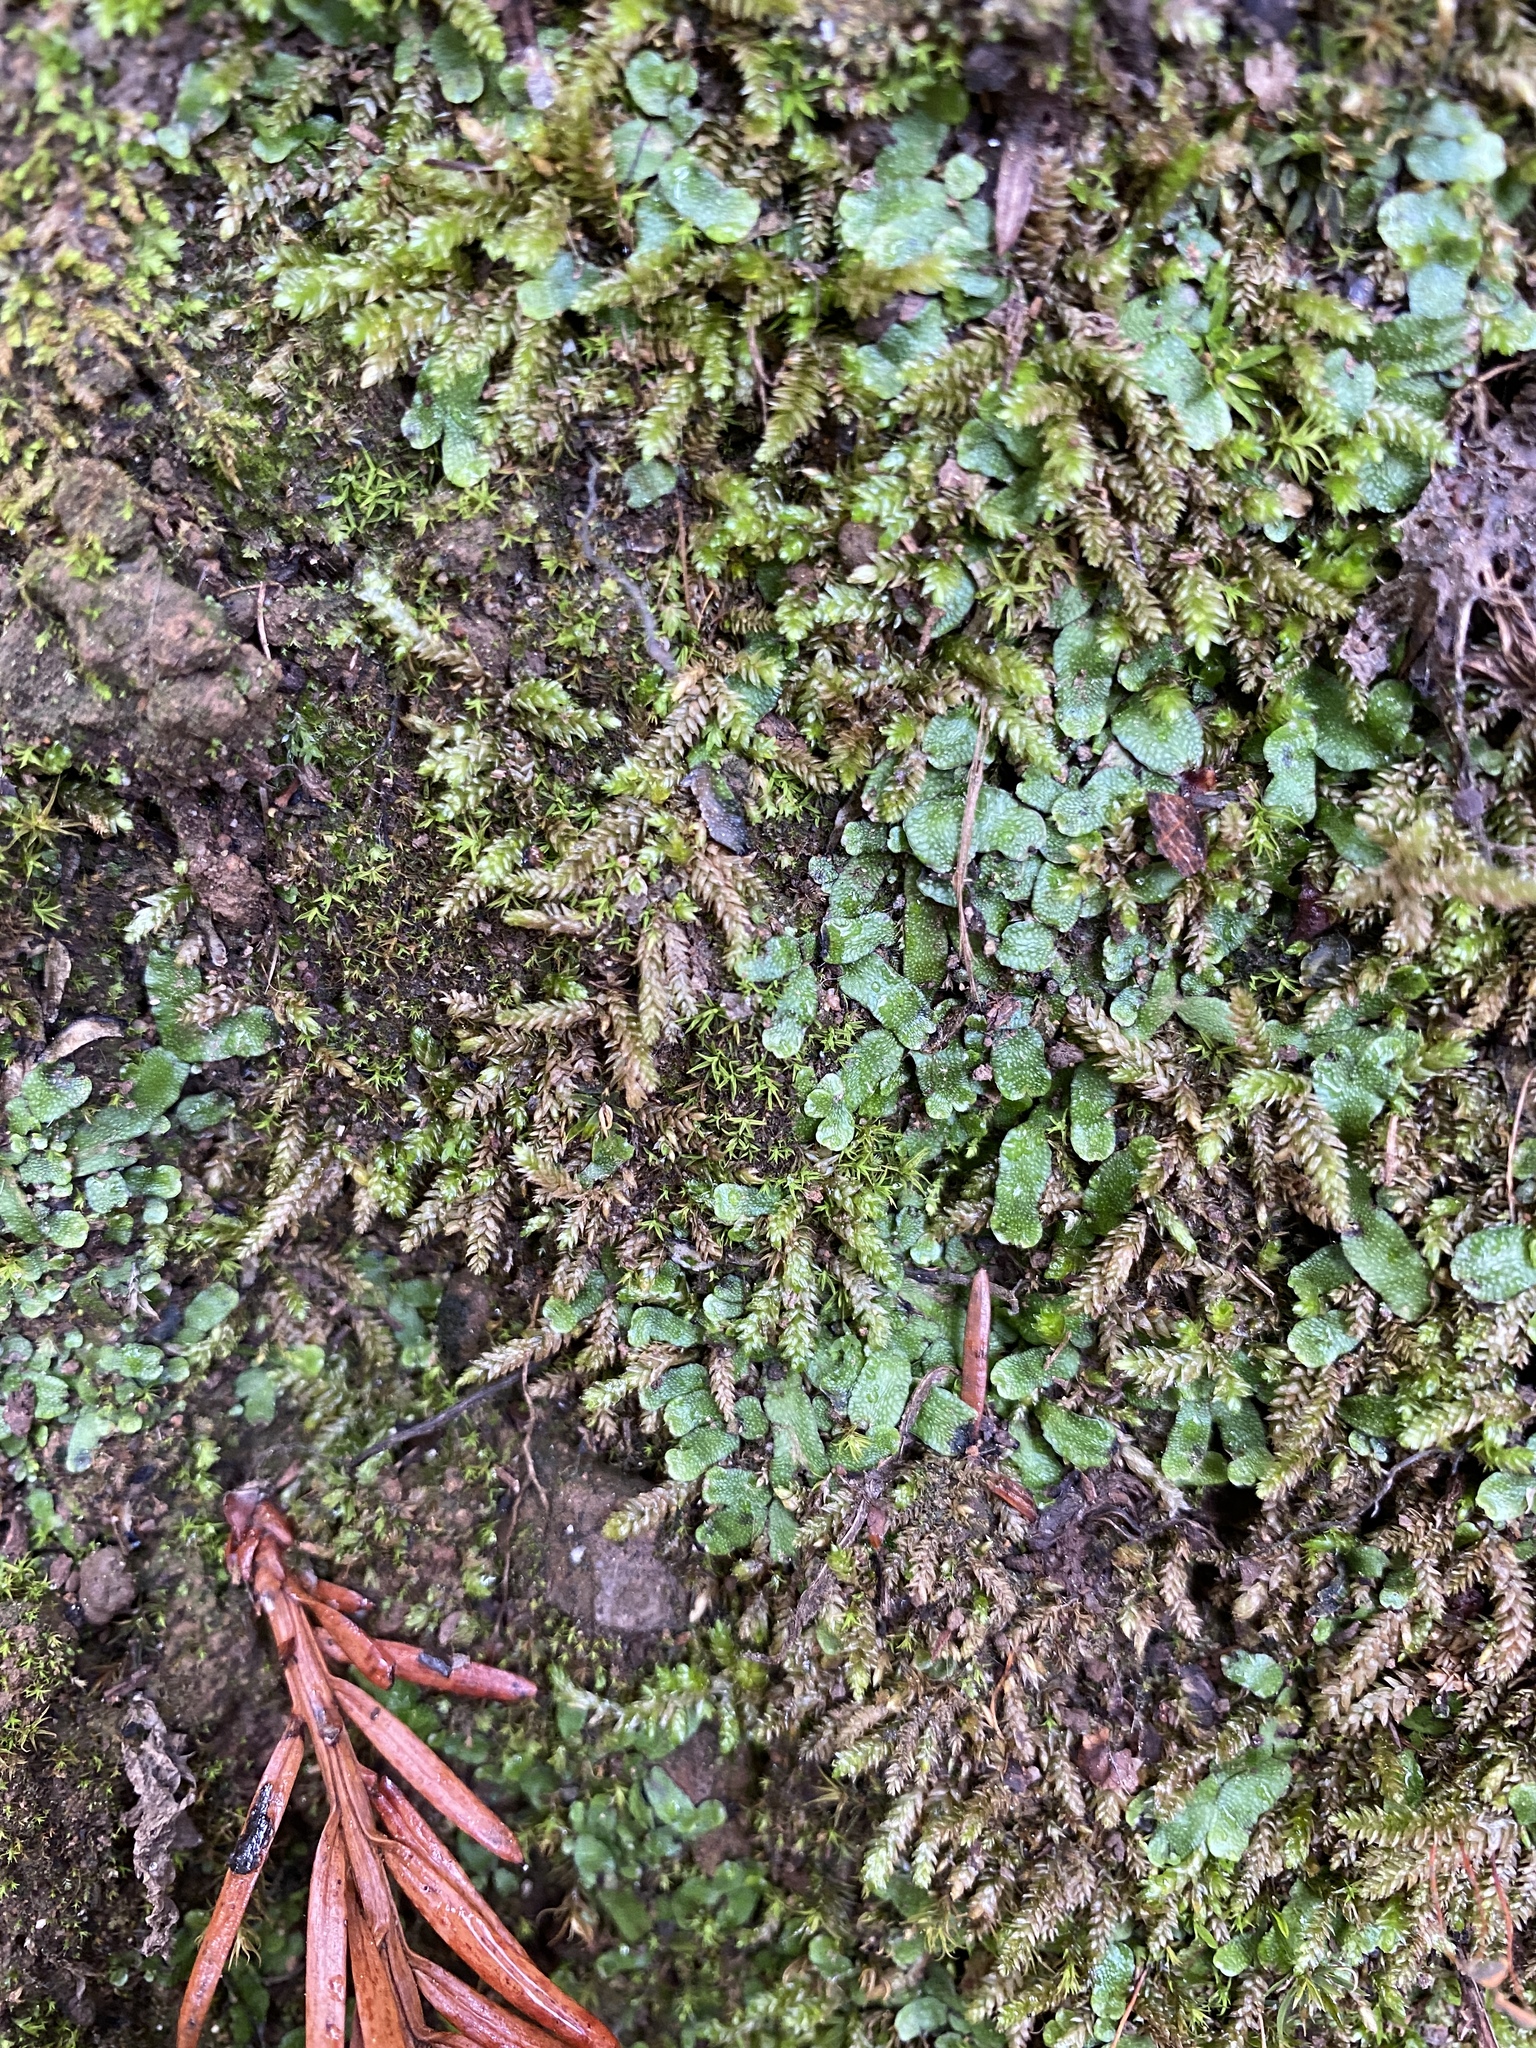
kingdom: Plantae
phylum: Marchantiophyta
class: Marchantiopsida
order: Marchantiales
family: Targioniaceae
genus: Targionia
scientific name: Targionia hypophylla
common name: Orobus-seed liverwort
